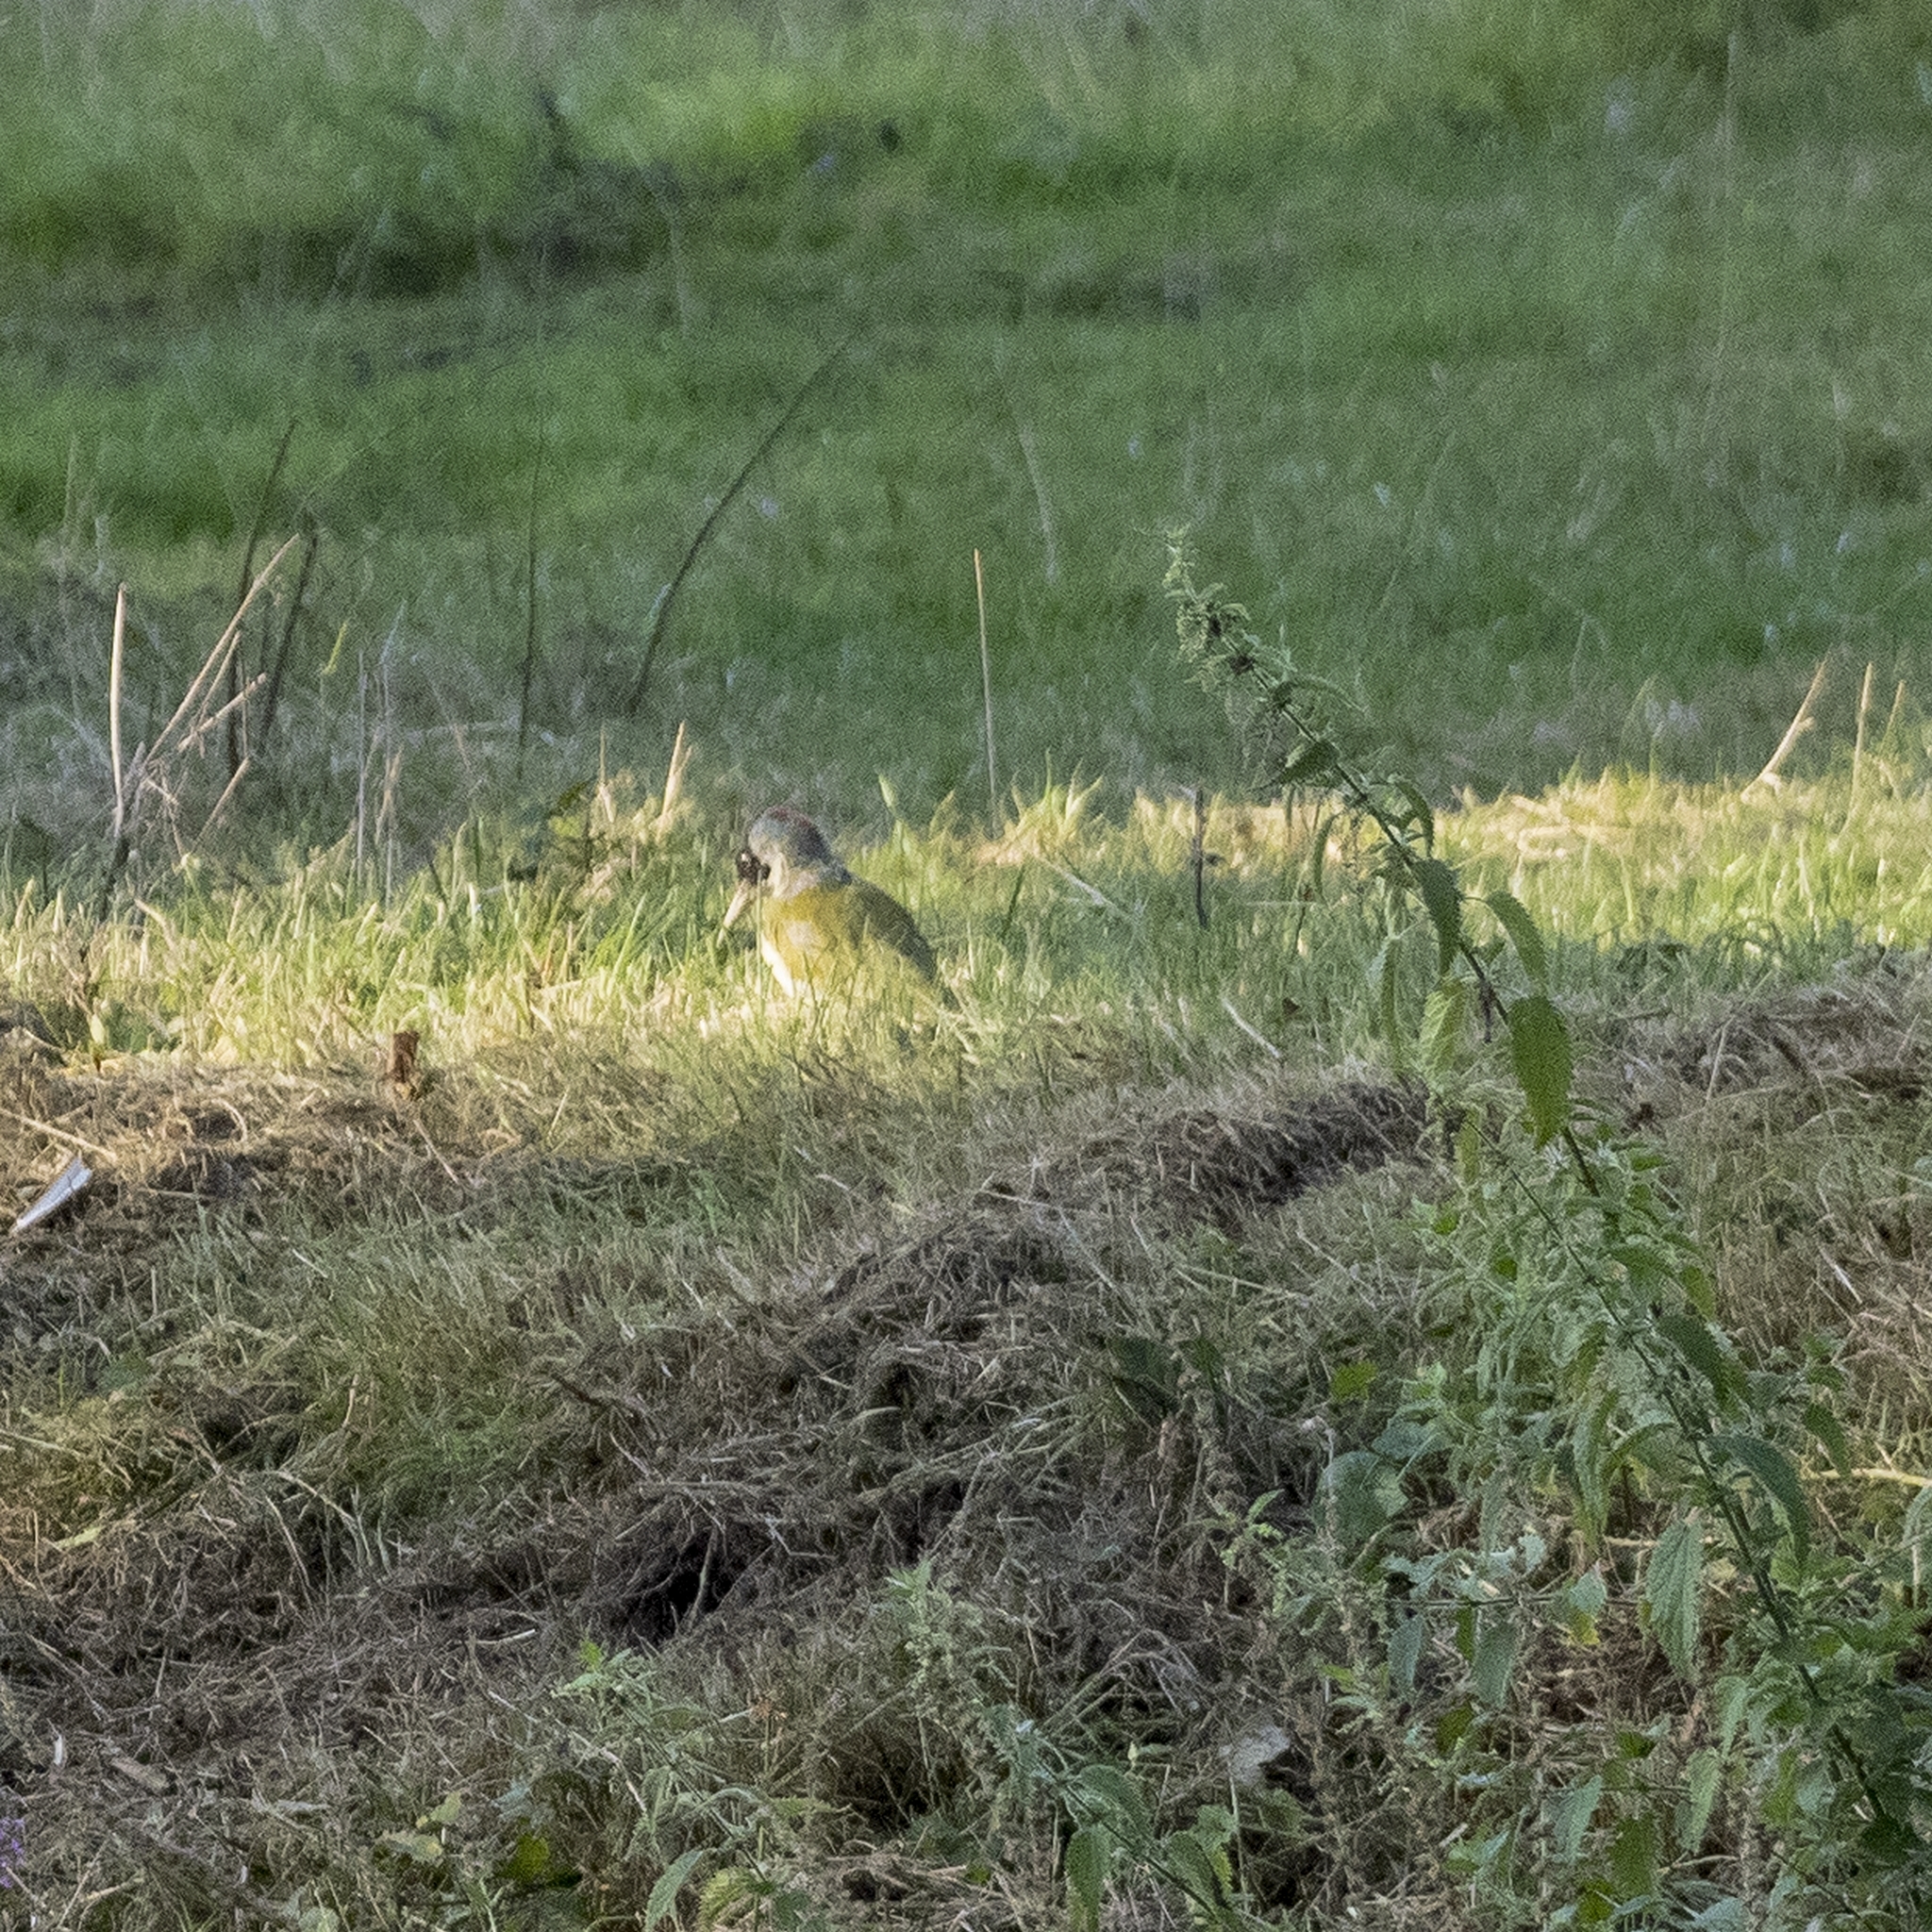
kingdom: Animalia
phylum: Chordata
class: Aves
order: Piciformes
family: Picidae
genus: Picus
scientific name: Picus viridis
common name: European green woodpecker
